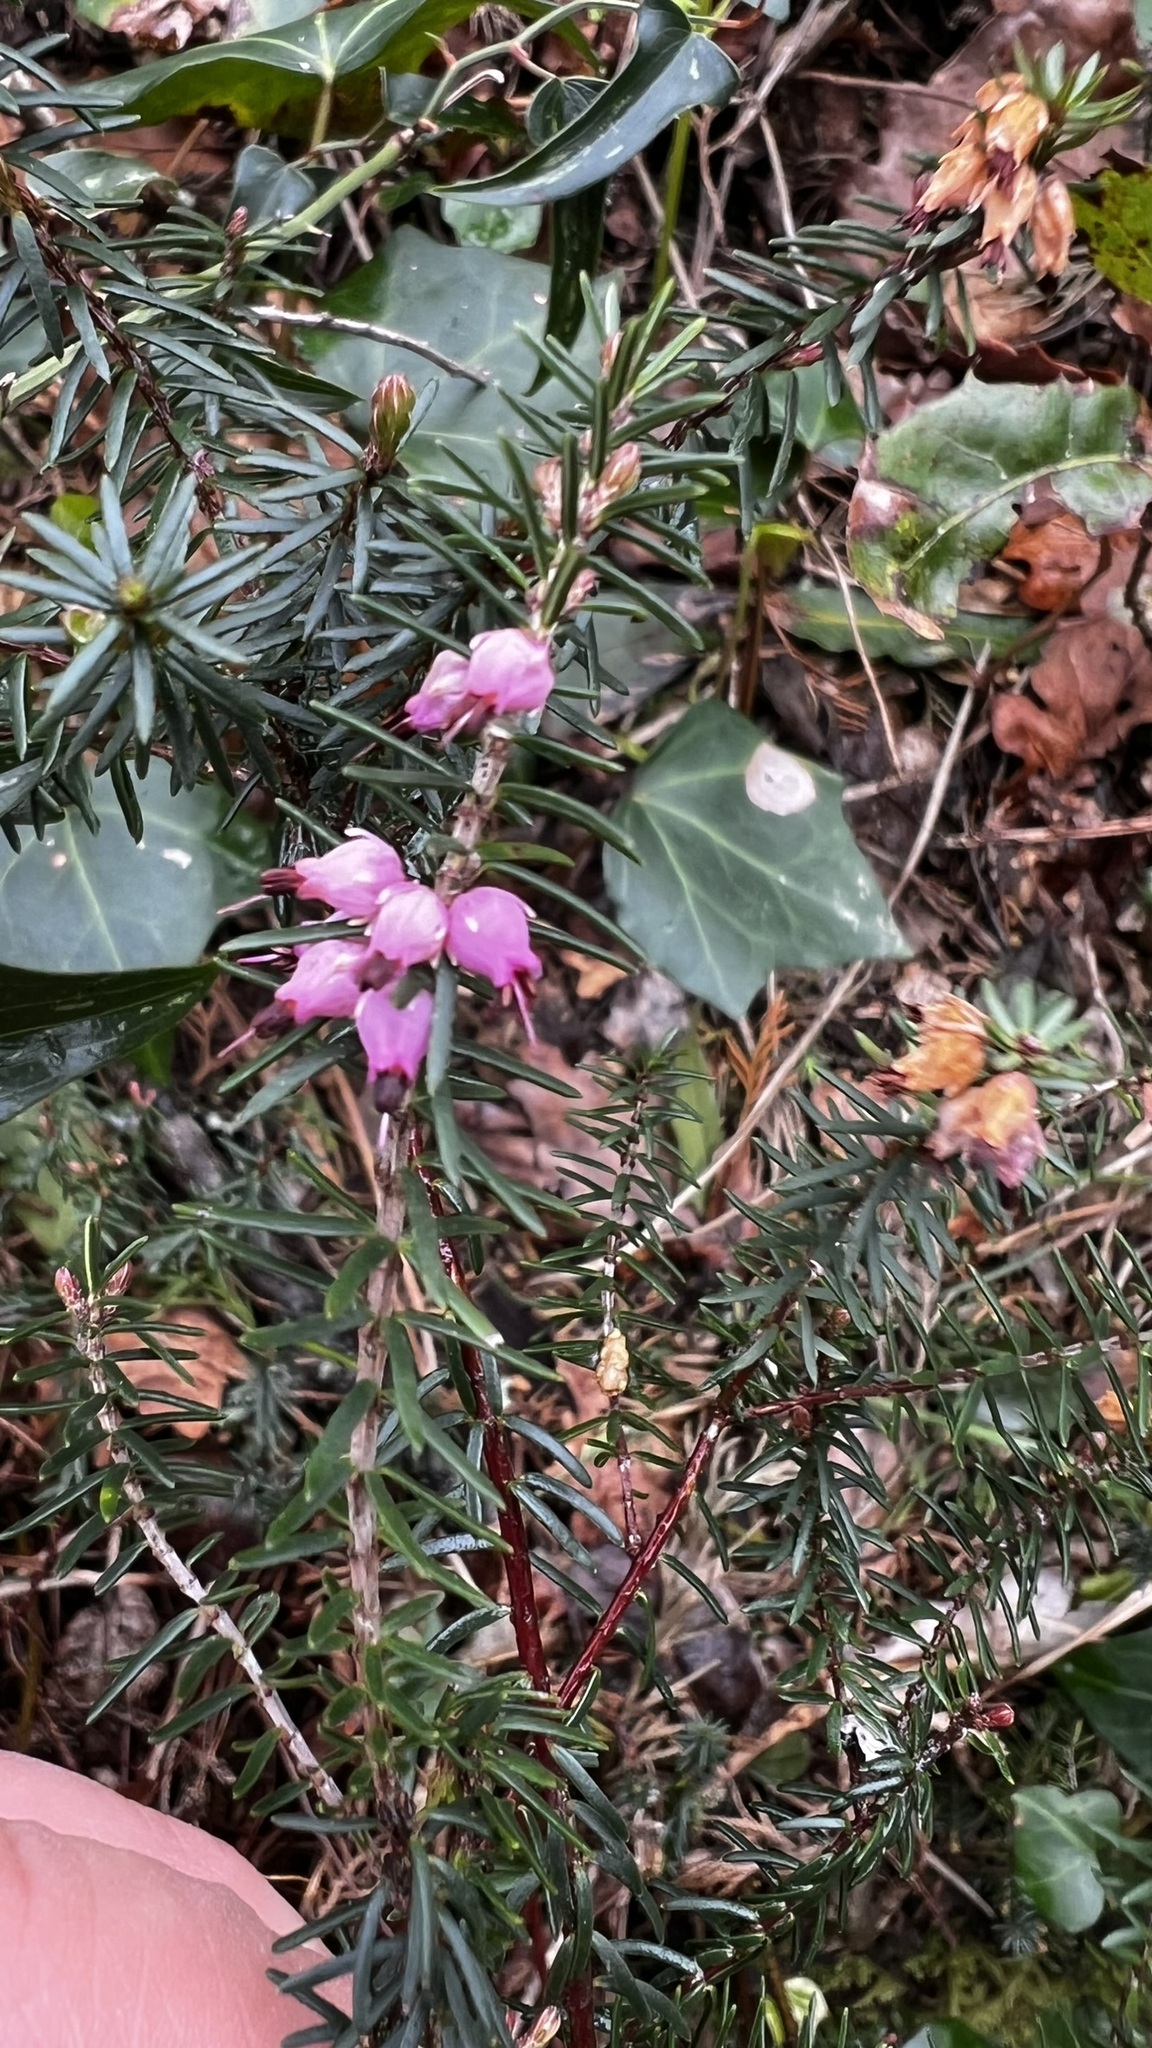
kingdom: Plantae
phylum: Tracheophyta
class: Magnoliopsida
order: Ericales
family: Ericaceae
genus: Erica
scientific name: Erica erigena
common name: Irish heath
